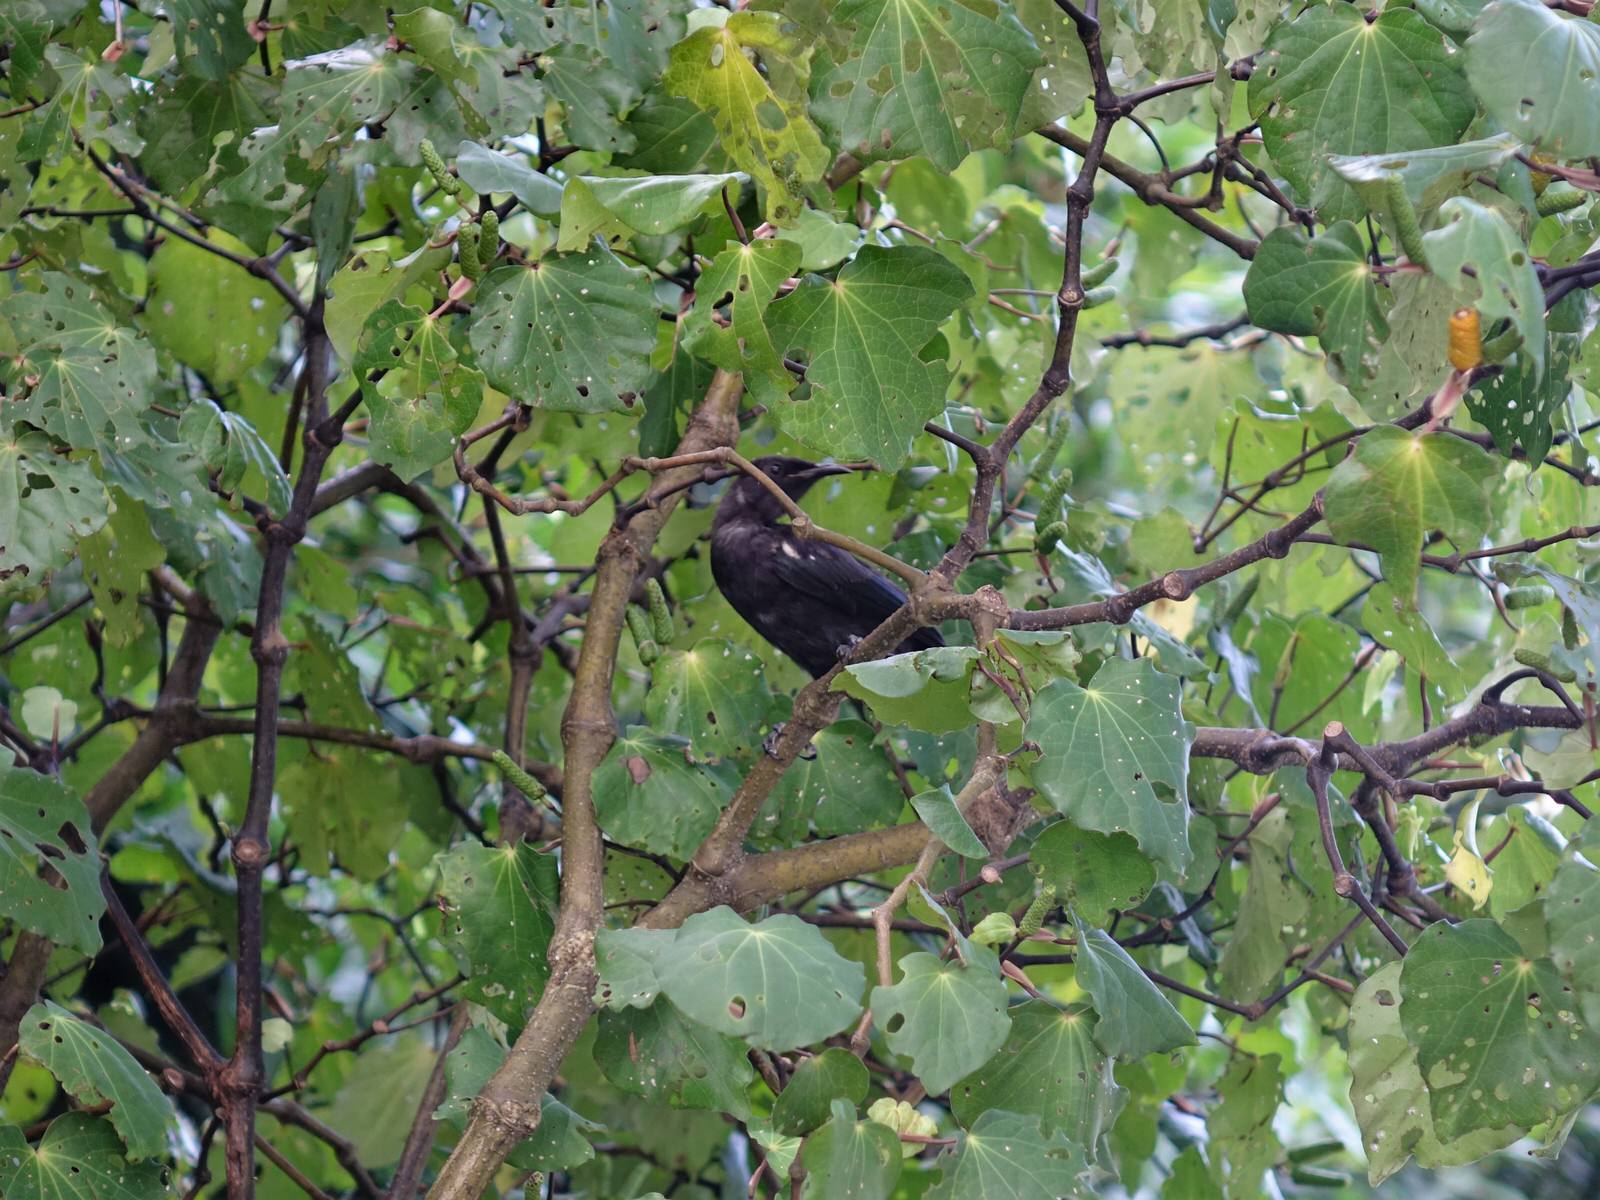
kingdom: Animalia
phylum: Chordata
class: Aves
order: Passeriformes
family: Meliphagidae
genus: Prosthemadera
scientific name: Prosthemadera novaeseelandiae
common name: Tui
